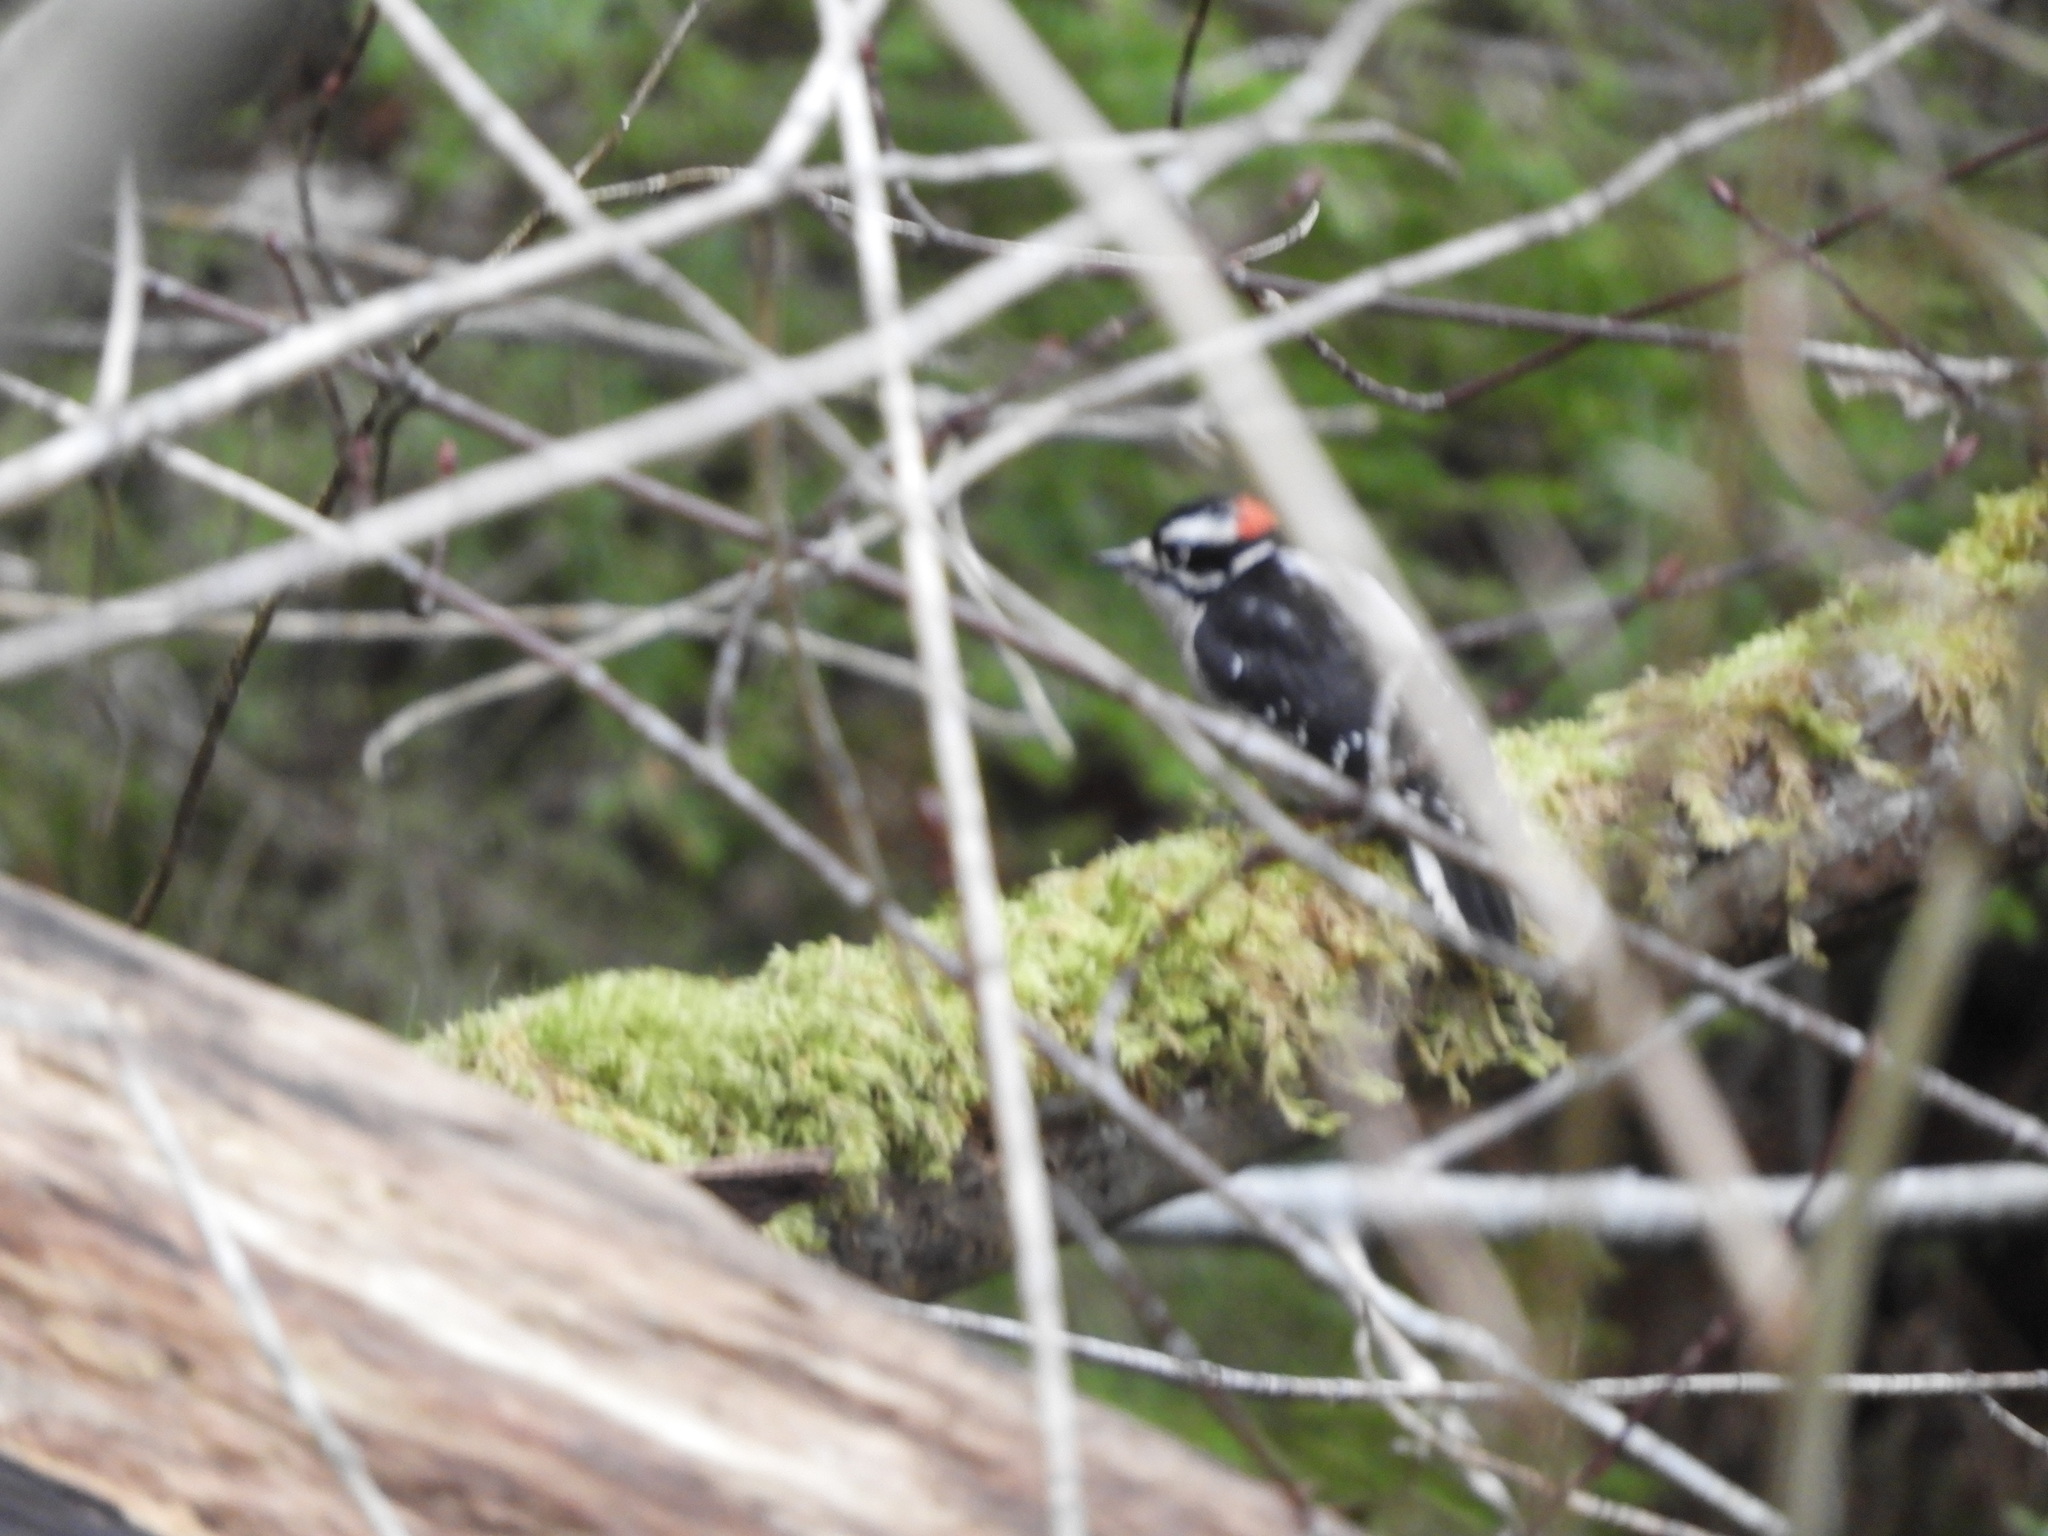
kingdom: Animalia
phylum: Chordata
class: Aves
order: Piciformes
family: Picidae
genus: Dryobates
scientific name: Dryobates pubescens
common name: Downy woodpecker
